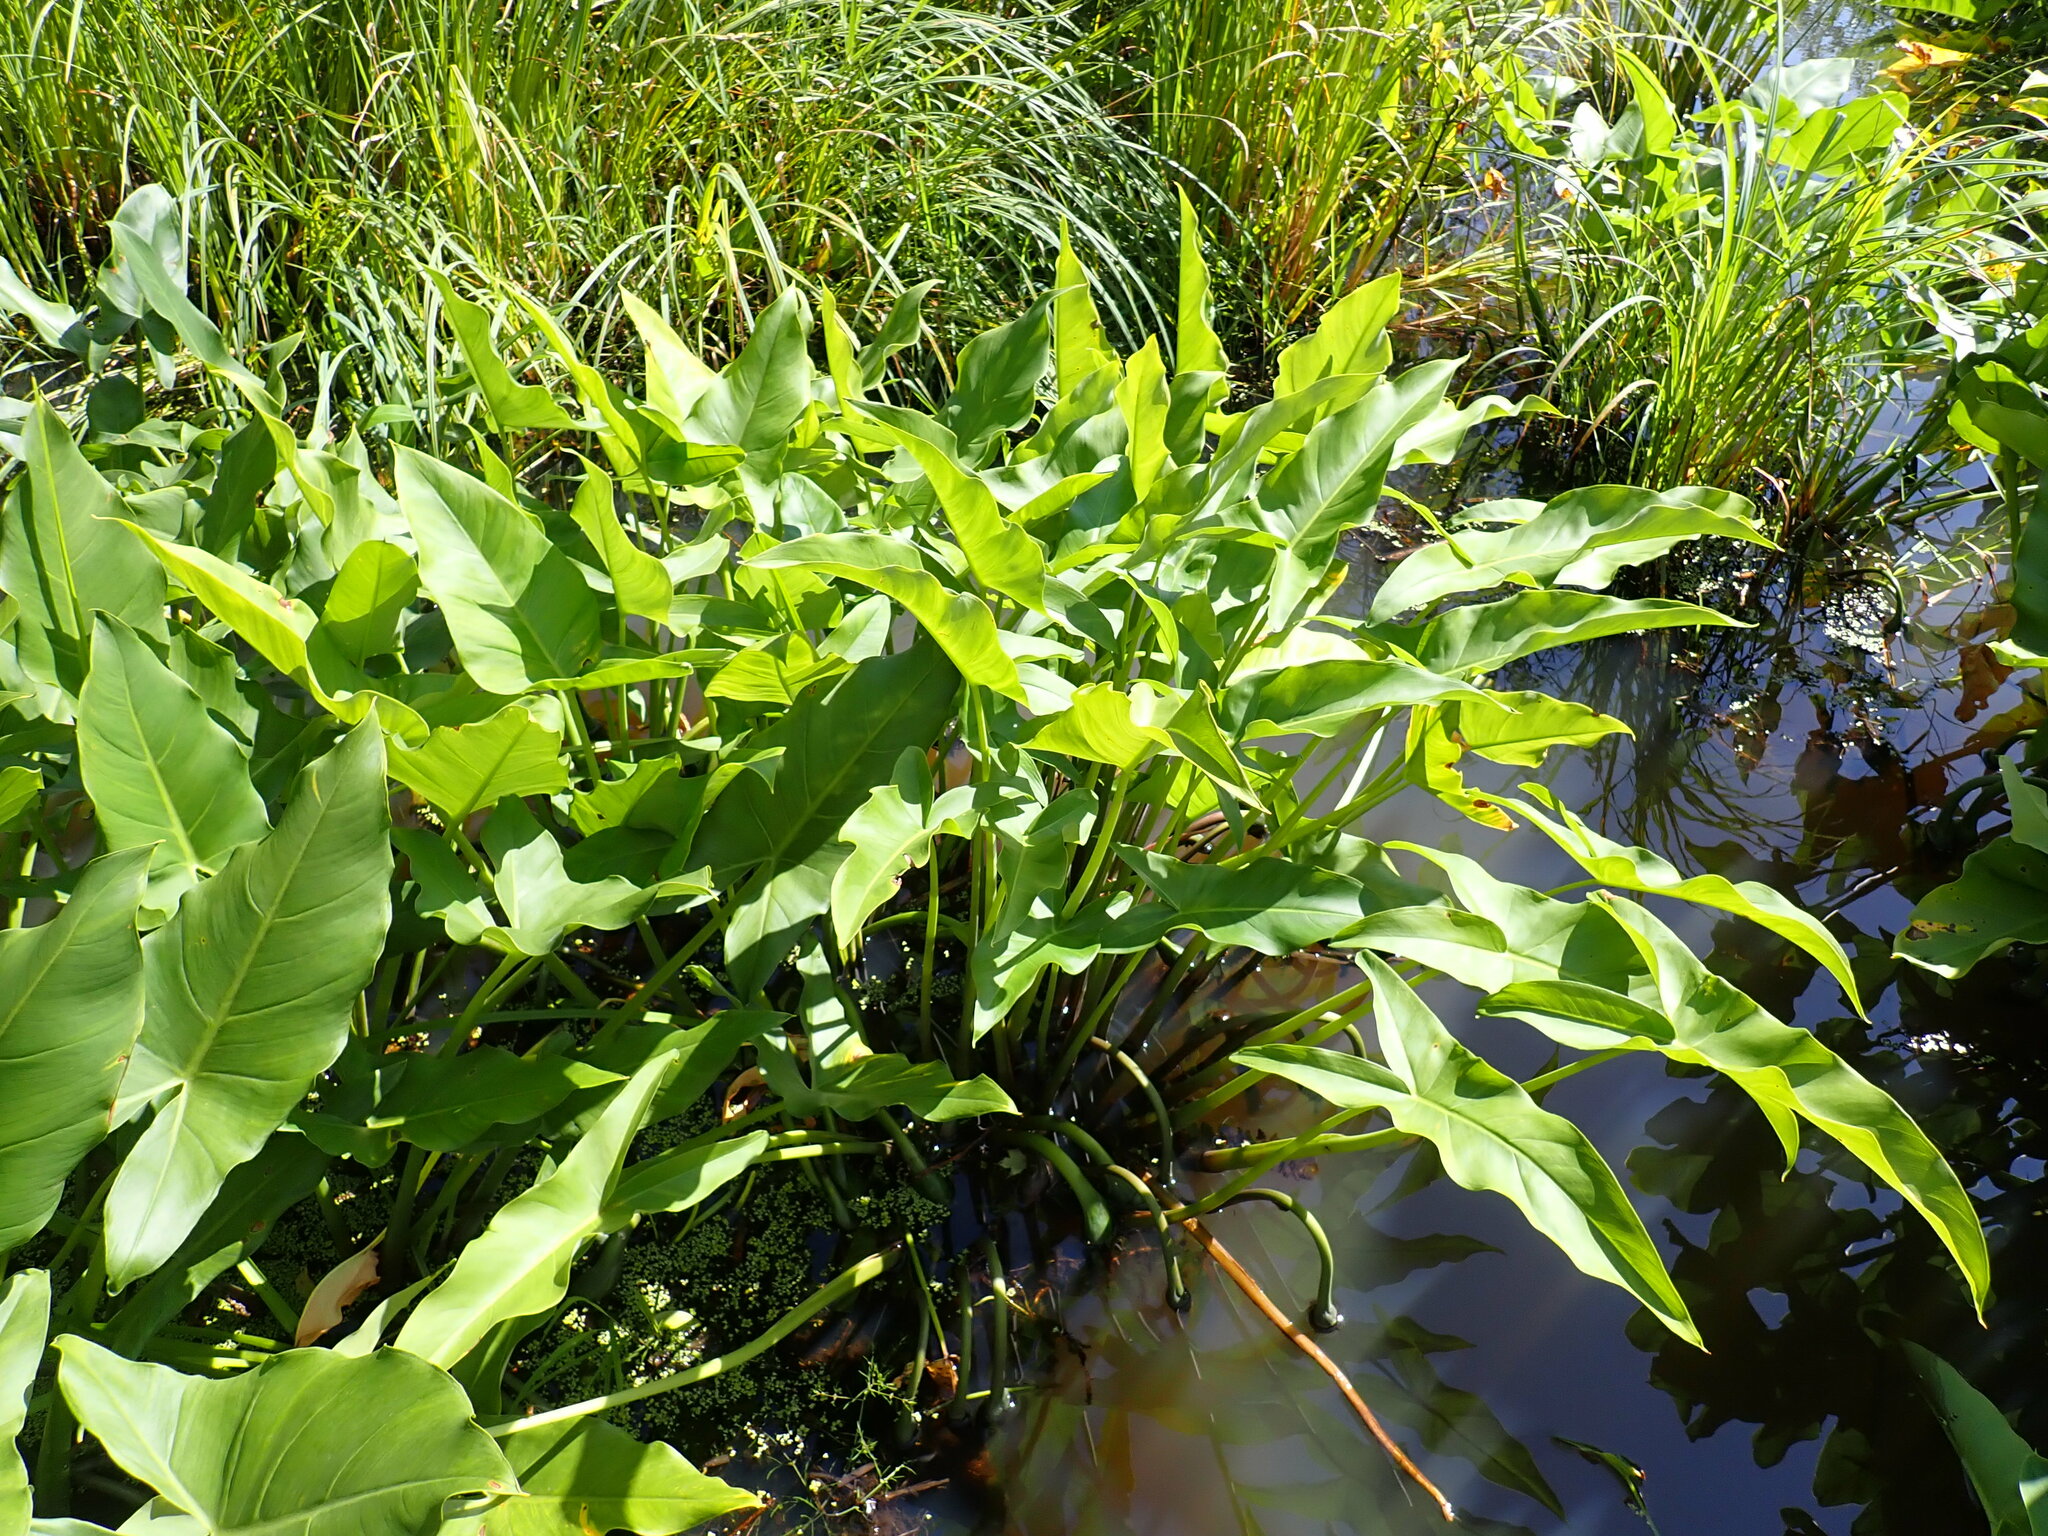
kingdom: Plantae
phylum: Tracheophyta
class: Liliopsida
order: Alismatales
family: Araceae
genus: Peltandra
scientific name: Peltandra virginica
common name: Arrow arum
